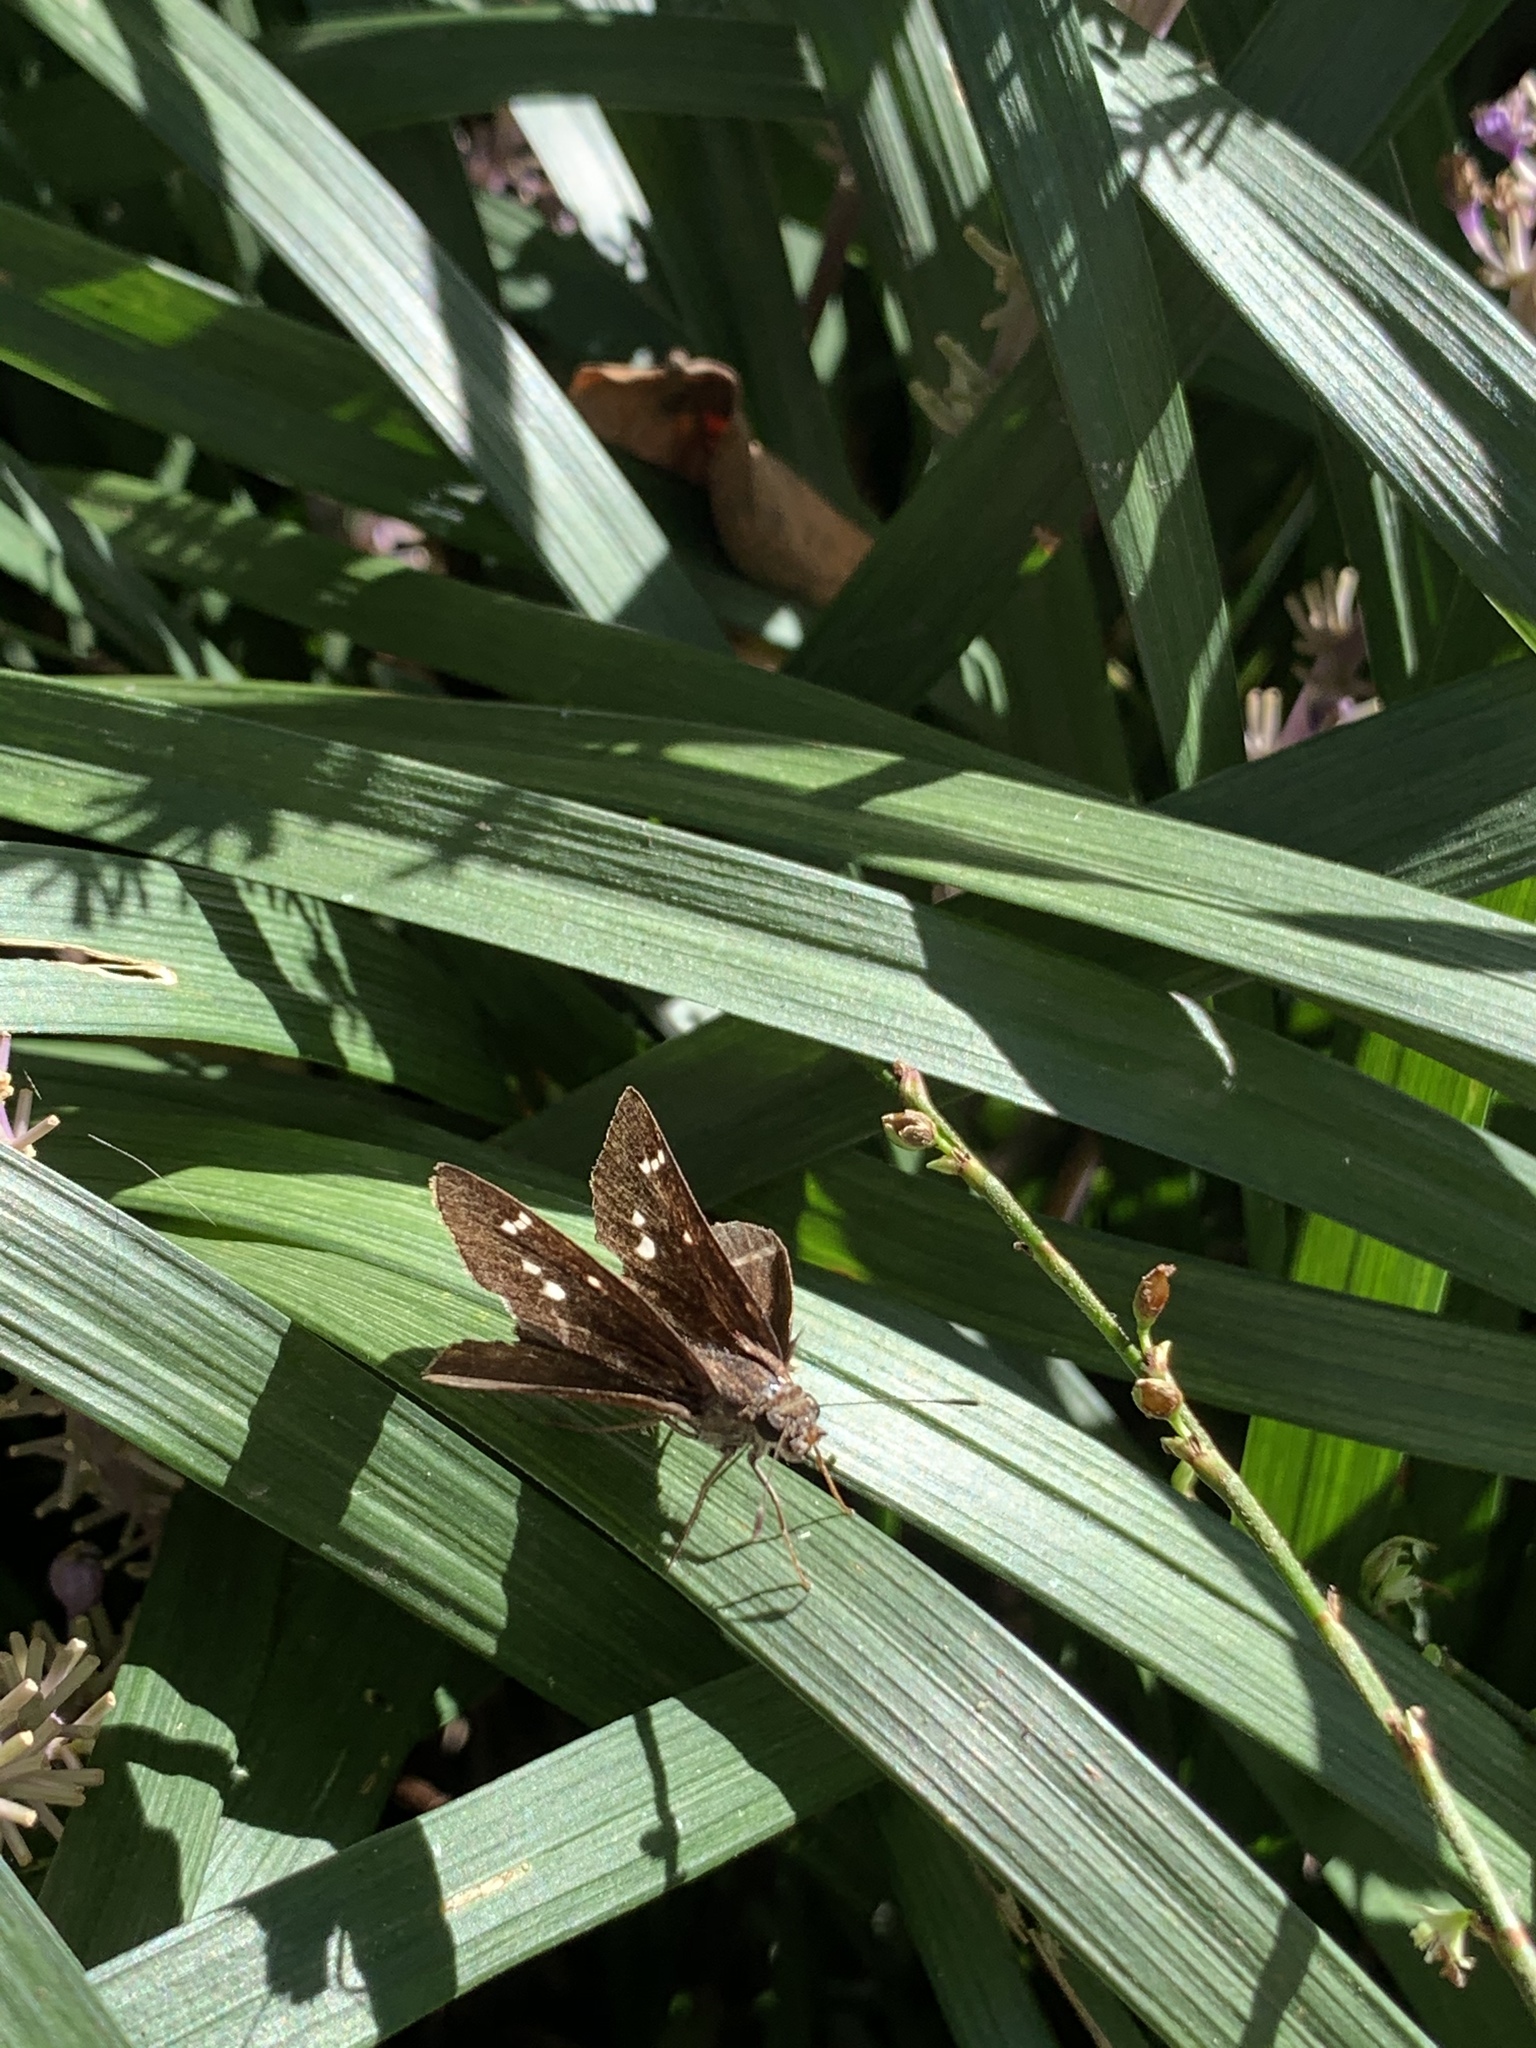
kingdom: Animalia
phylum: Arthropoda
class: Insecta
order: Lepidoptera
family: Hesperiidae
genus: Lerema
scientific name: Lerema accius
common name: Clouded skipper
